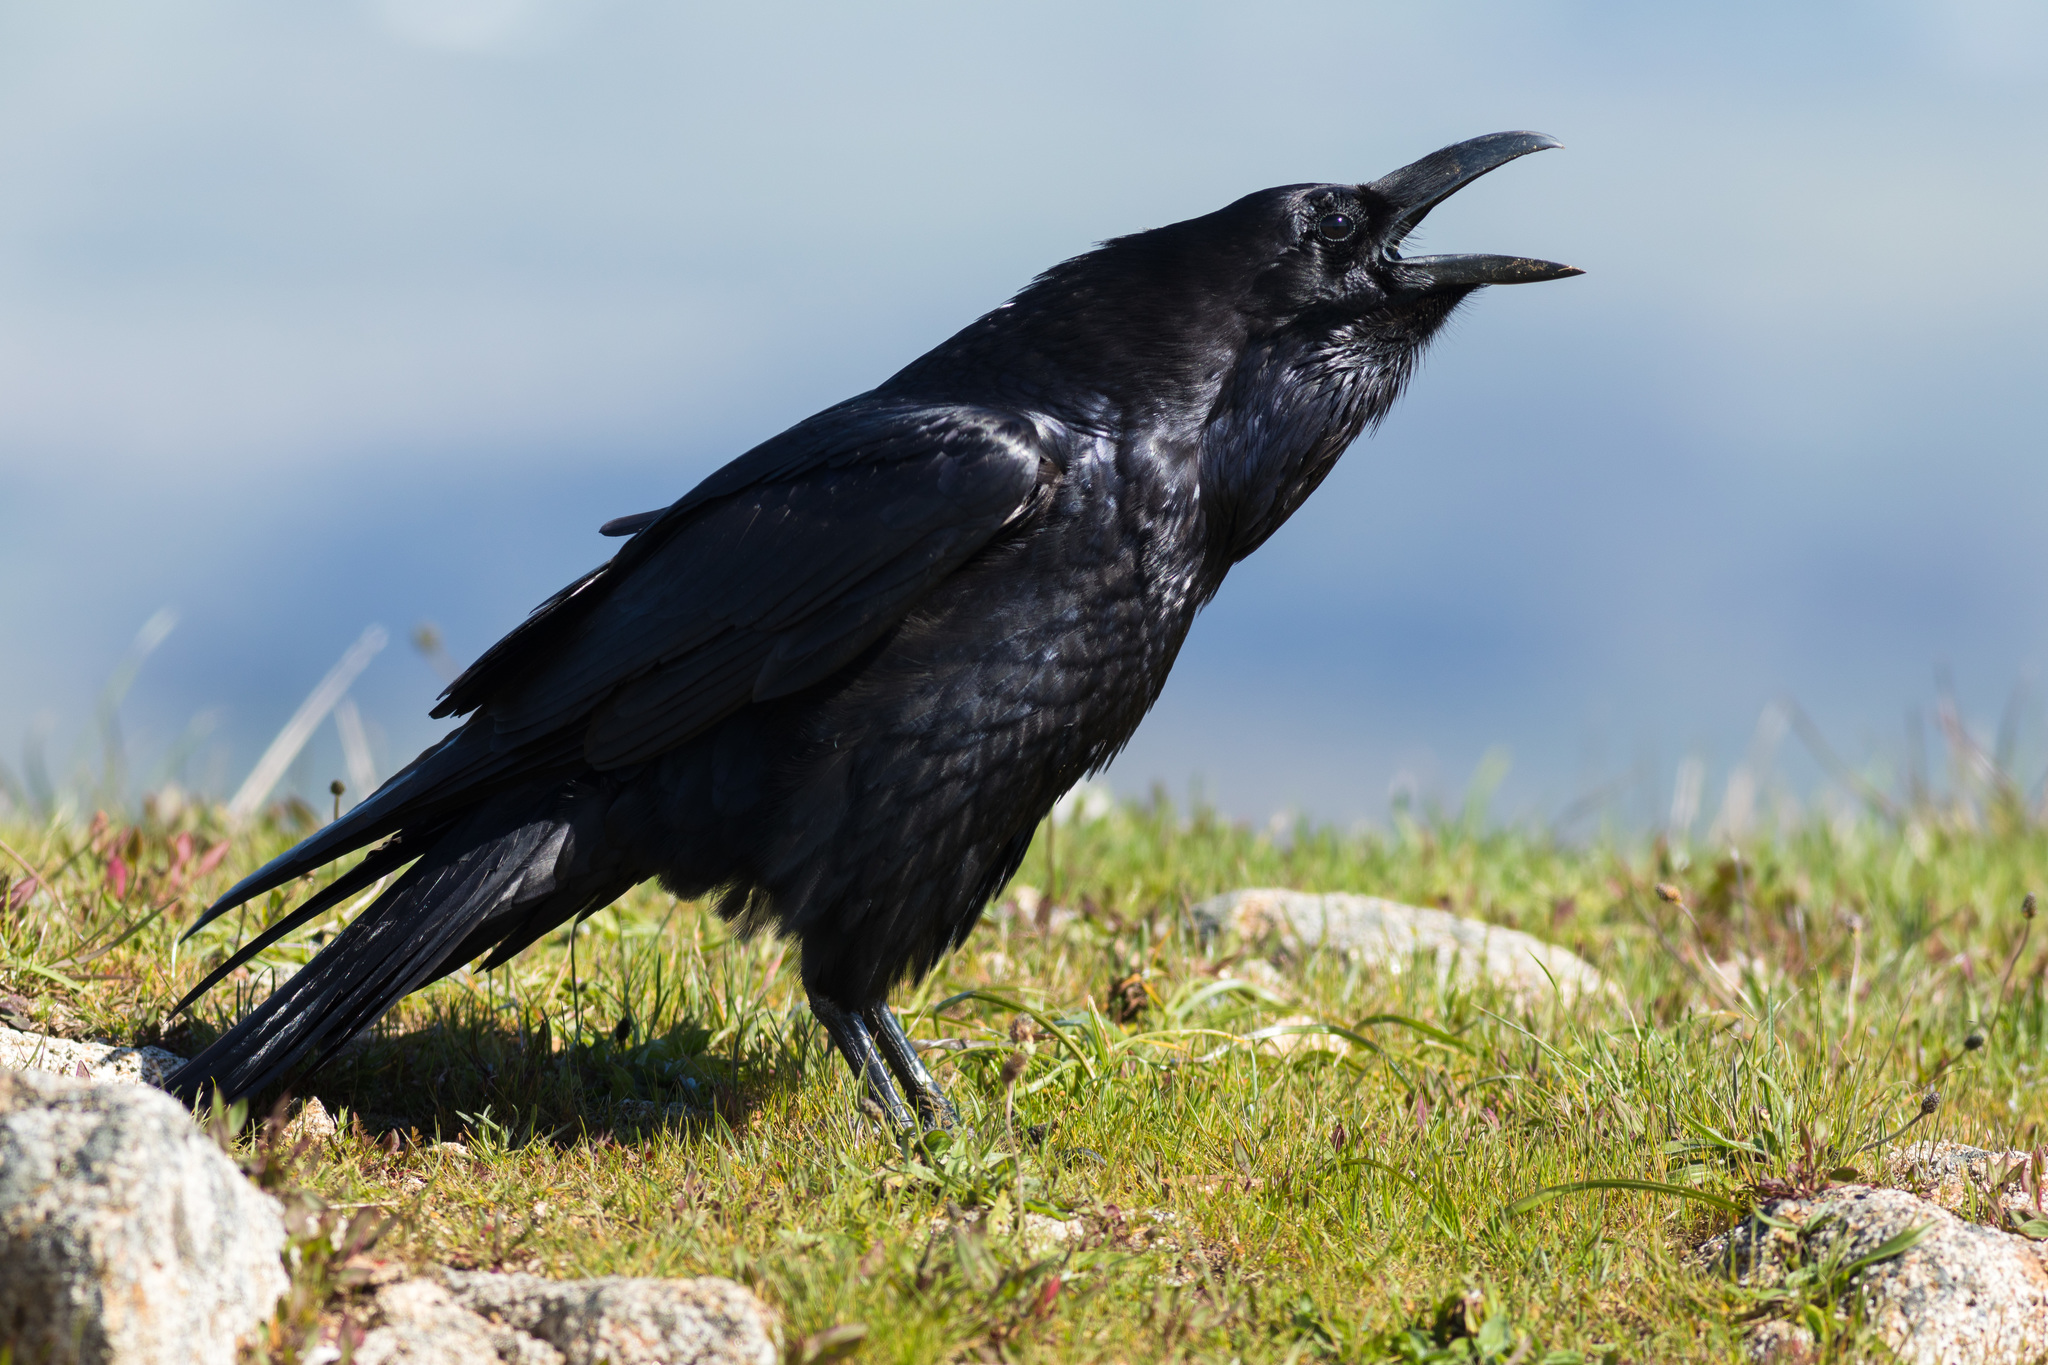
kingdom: Animalia
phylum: Chordata
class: Aves
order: Passeriformes
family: Corvidae
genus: Corvus
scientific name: Corvus corax
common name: Common raven
